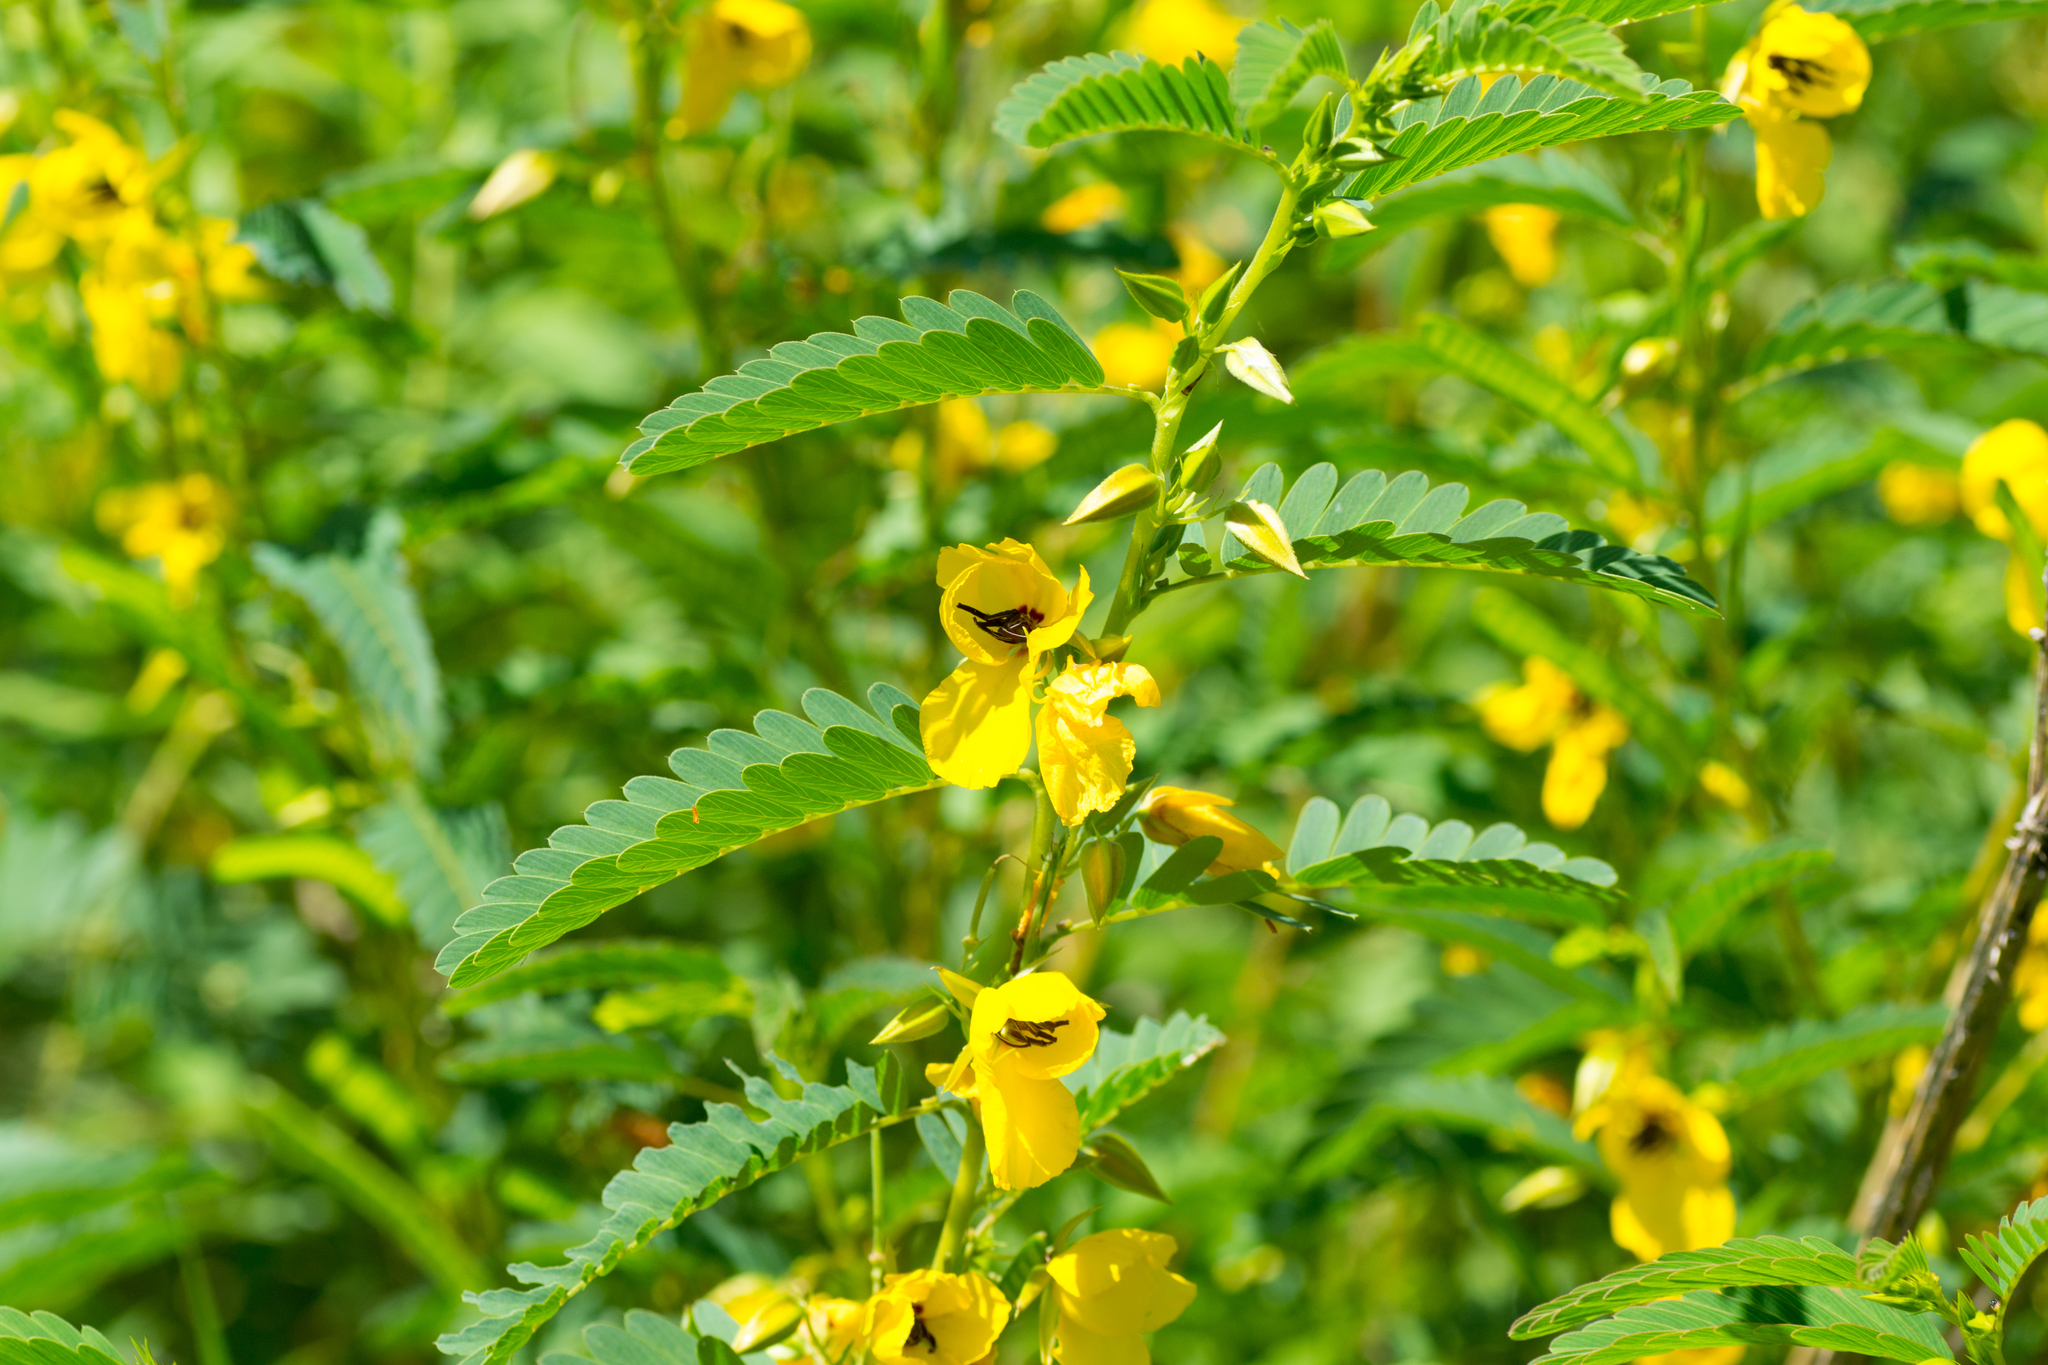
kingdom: Plantae
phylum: Tracheophyta
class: Magnoliopsida
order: Fabales
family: Fabaceae
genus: Chamaecrista
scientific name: Chamaecrista fasciculata
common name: Golden cassia
